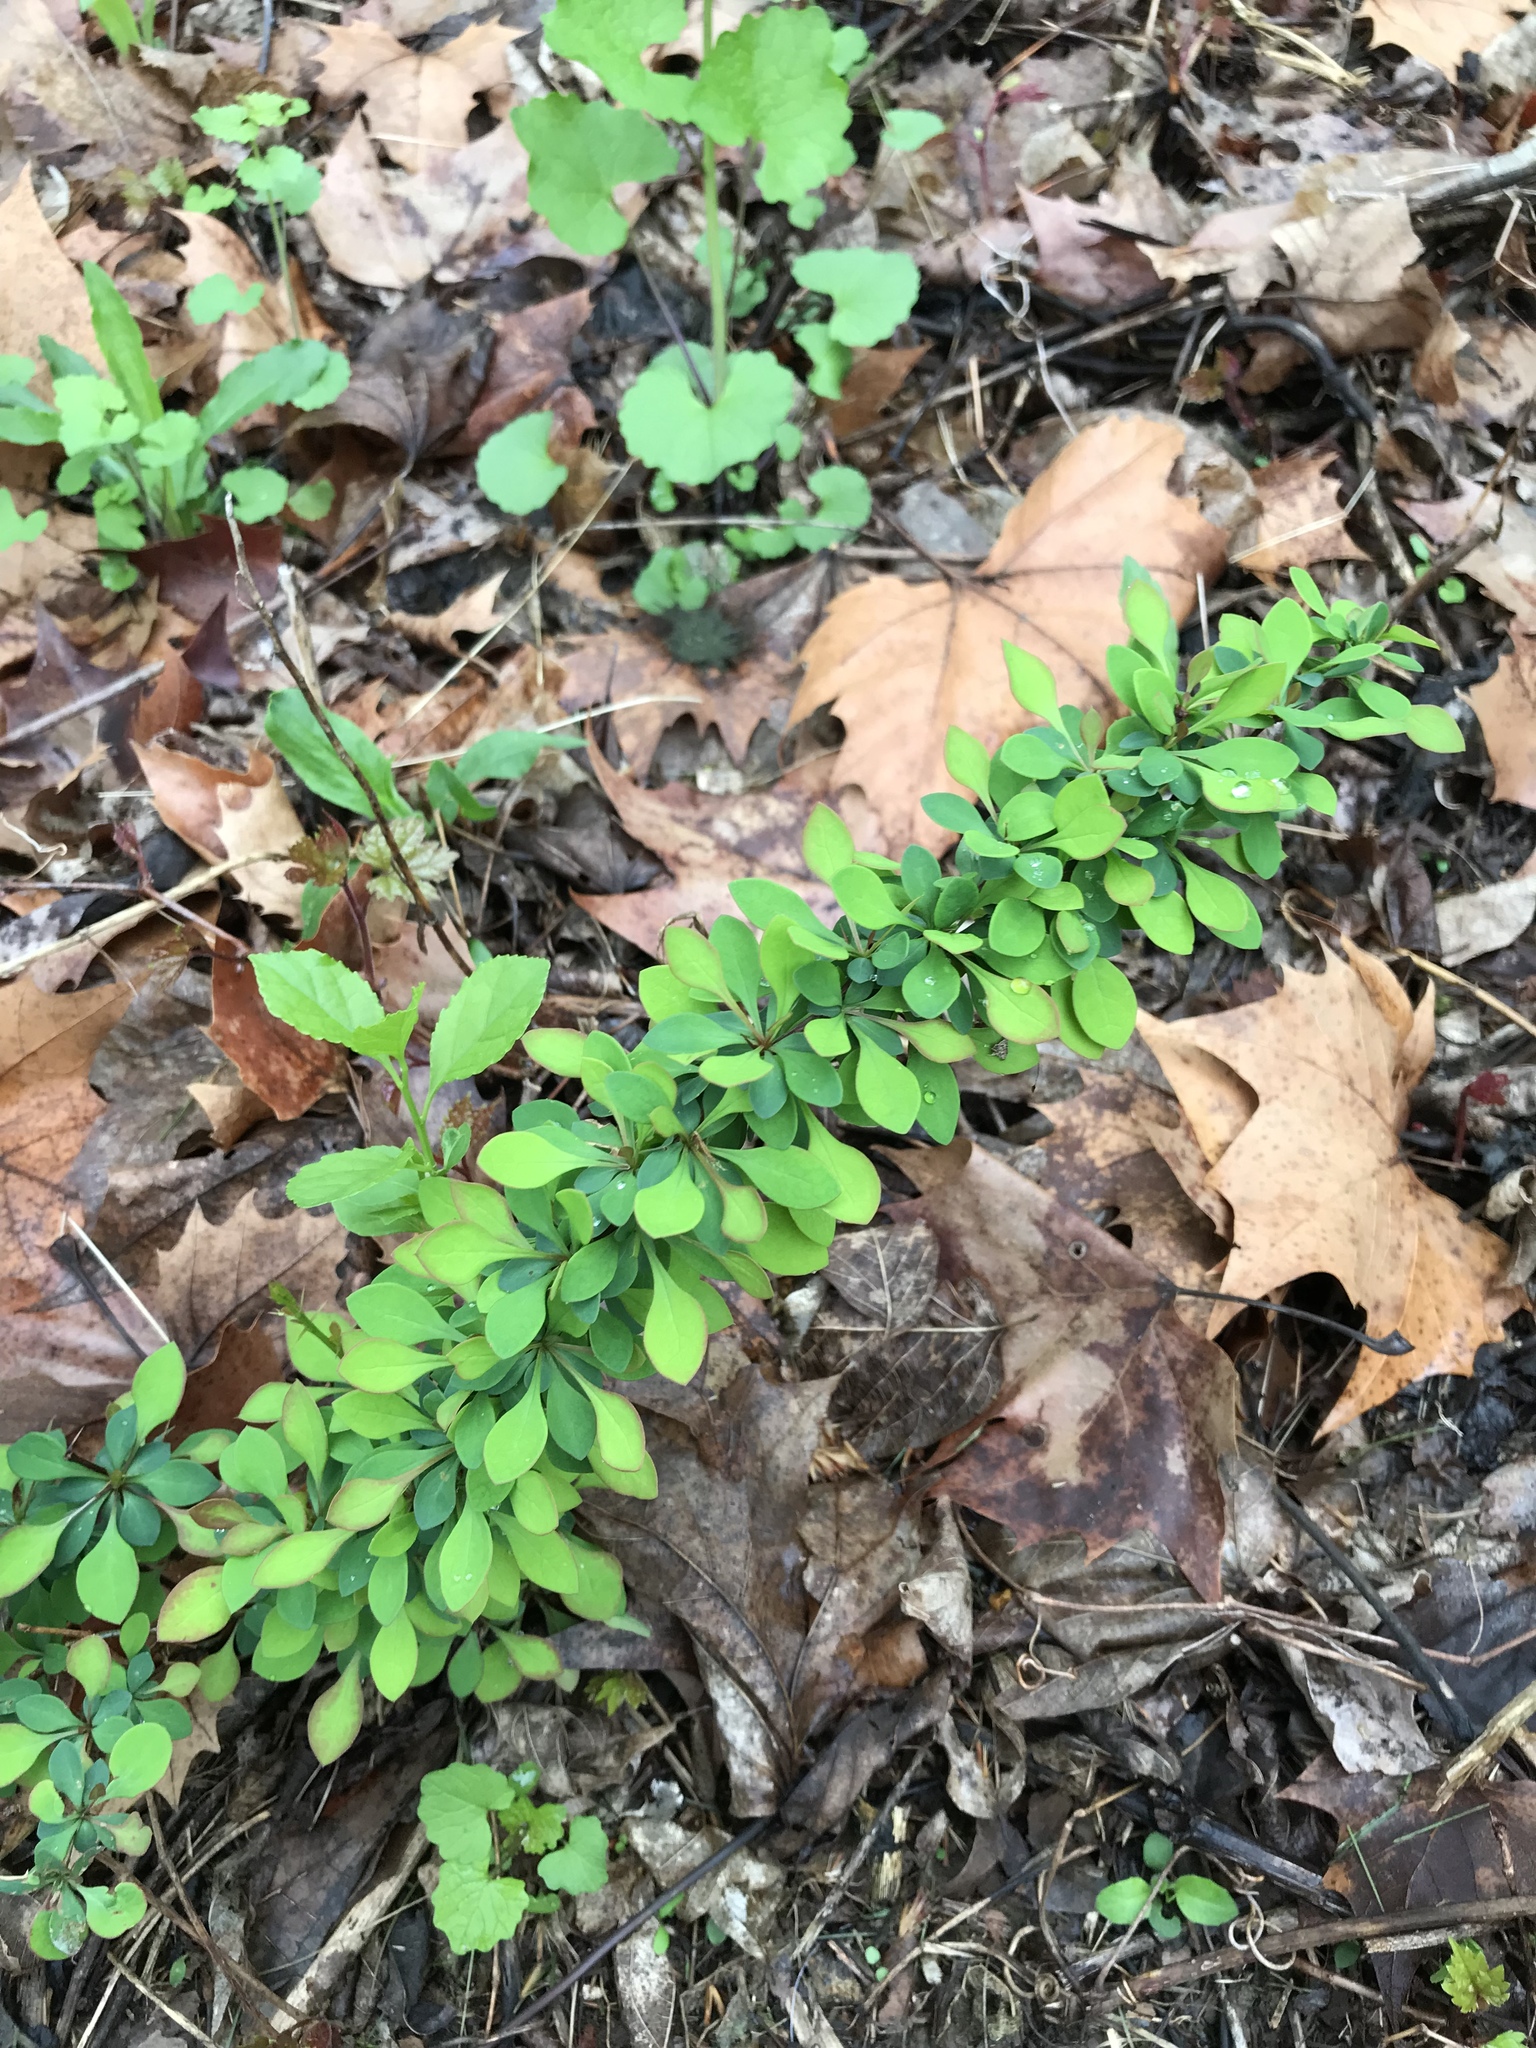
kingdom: Plantae
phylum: Tracheophyta
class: Magnoliopsida
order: Ranunculales
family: Berberidaceae
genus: Berberis
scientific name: Berberis thunbergii
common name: Japanese barberry
